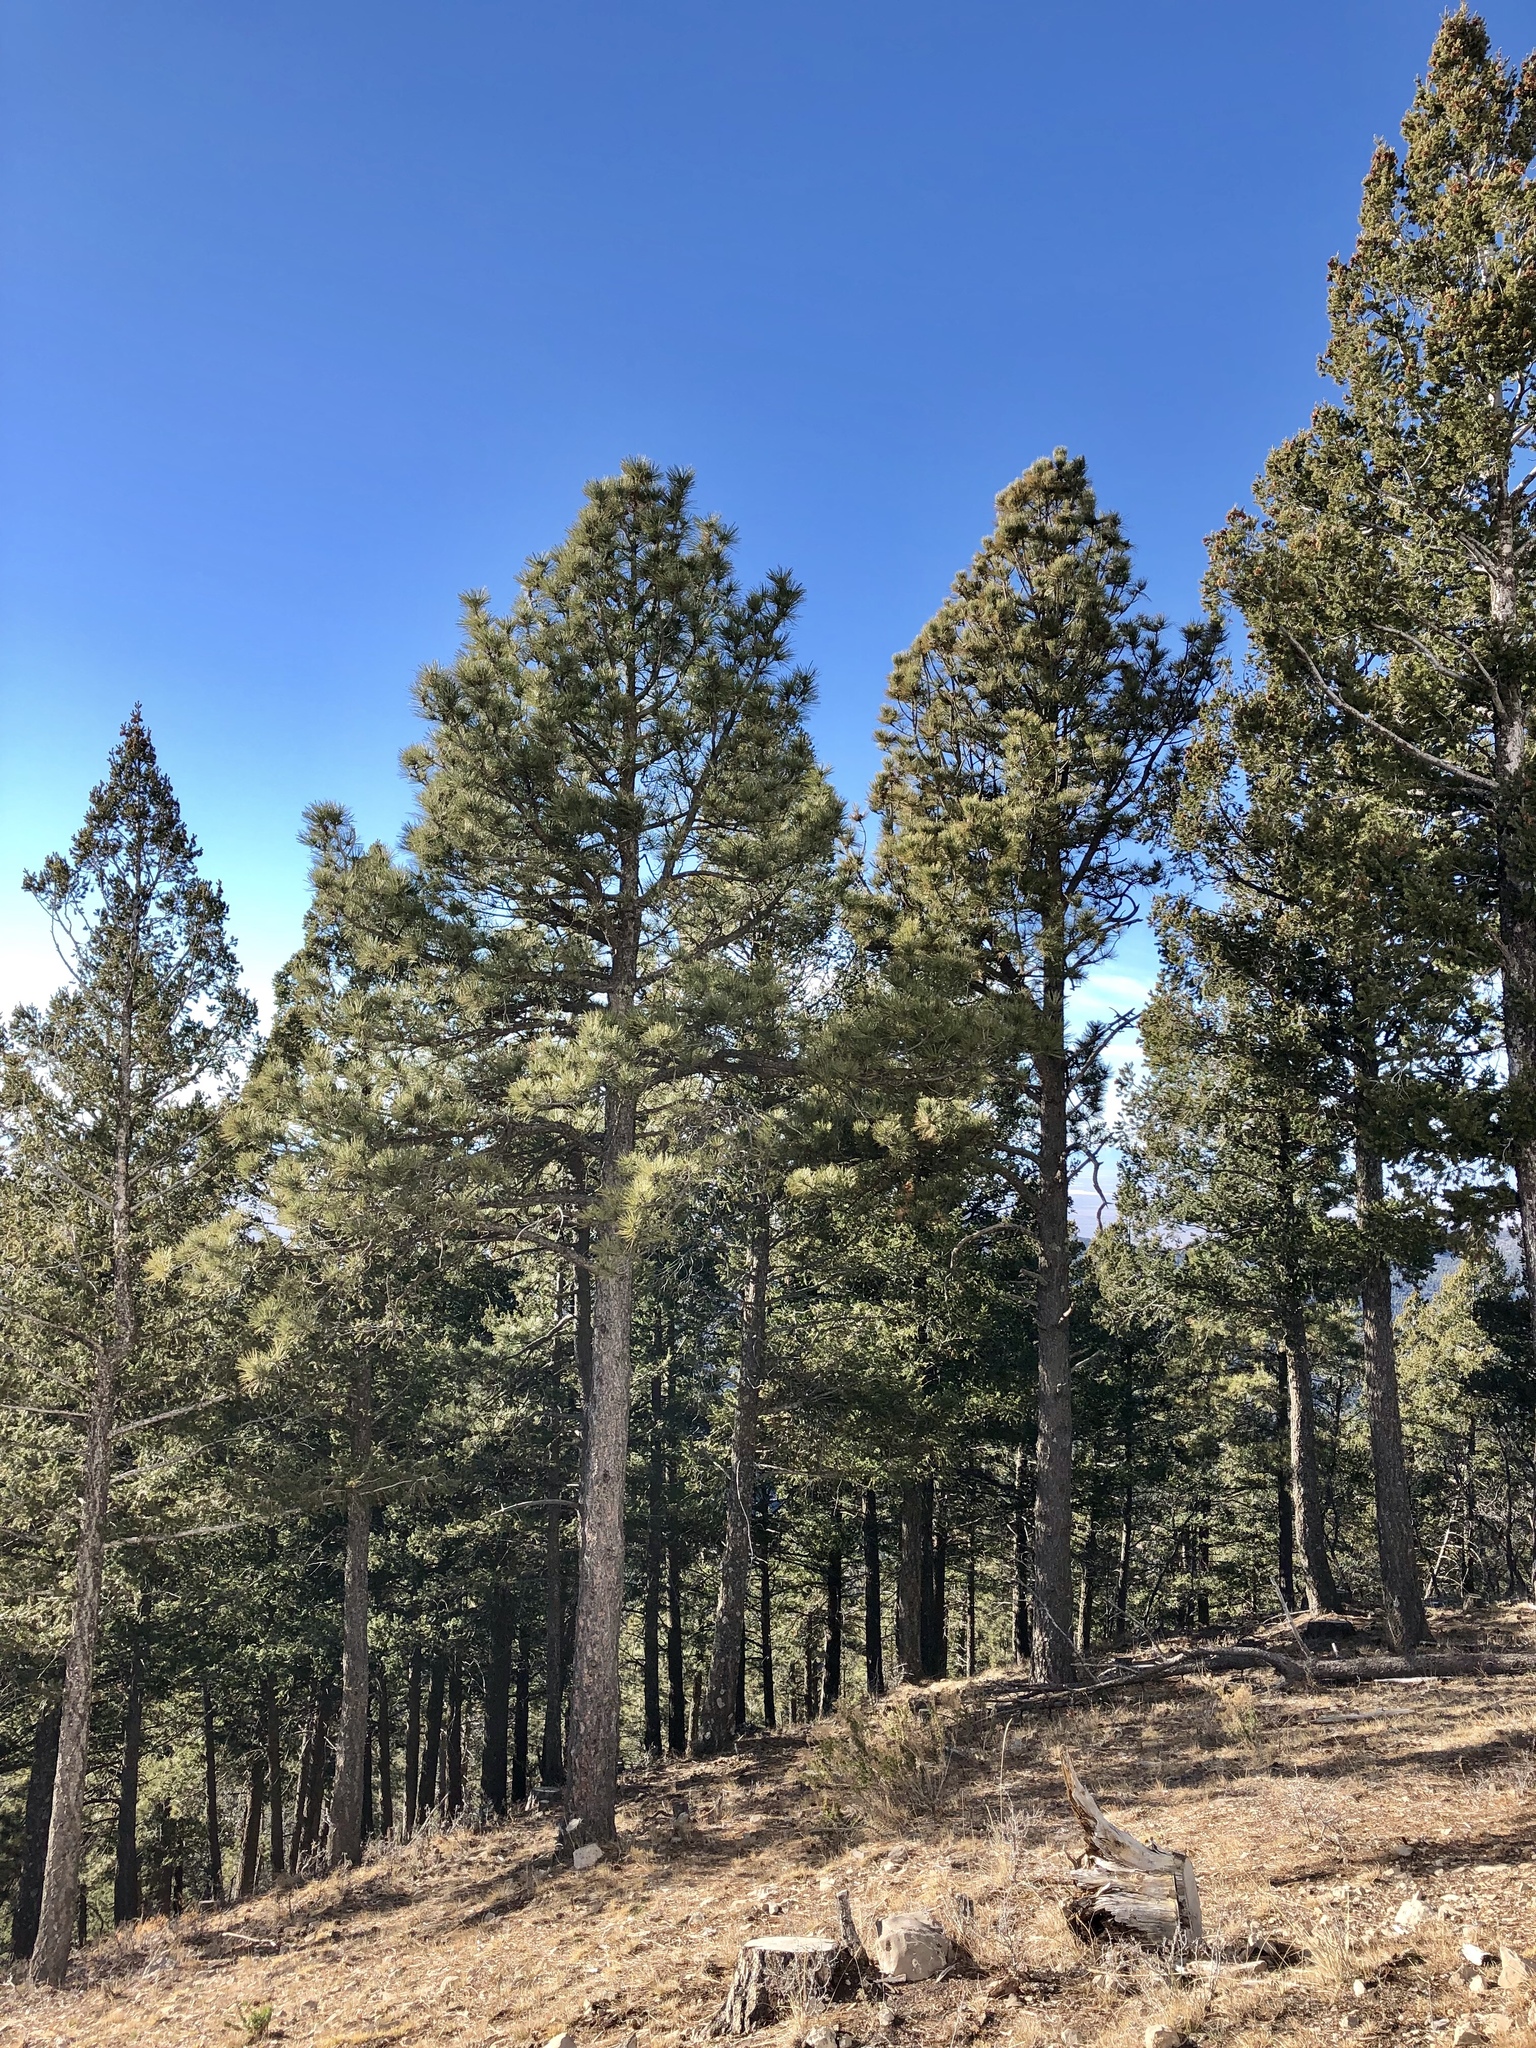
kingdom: Plantae
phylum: Tracheophyta
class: Pinopsida
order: Pinales
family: Pinaceae
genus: Pinus
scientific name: Pinus ponderosa
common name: Western yellow-pine
